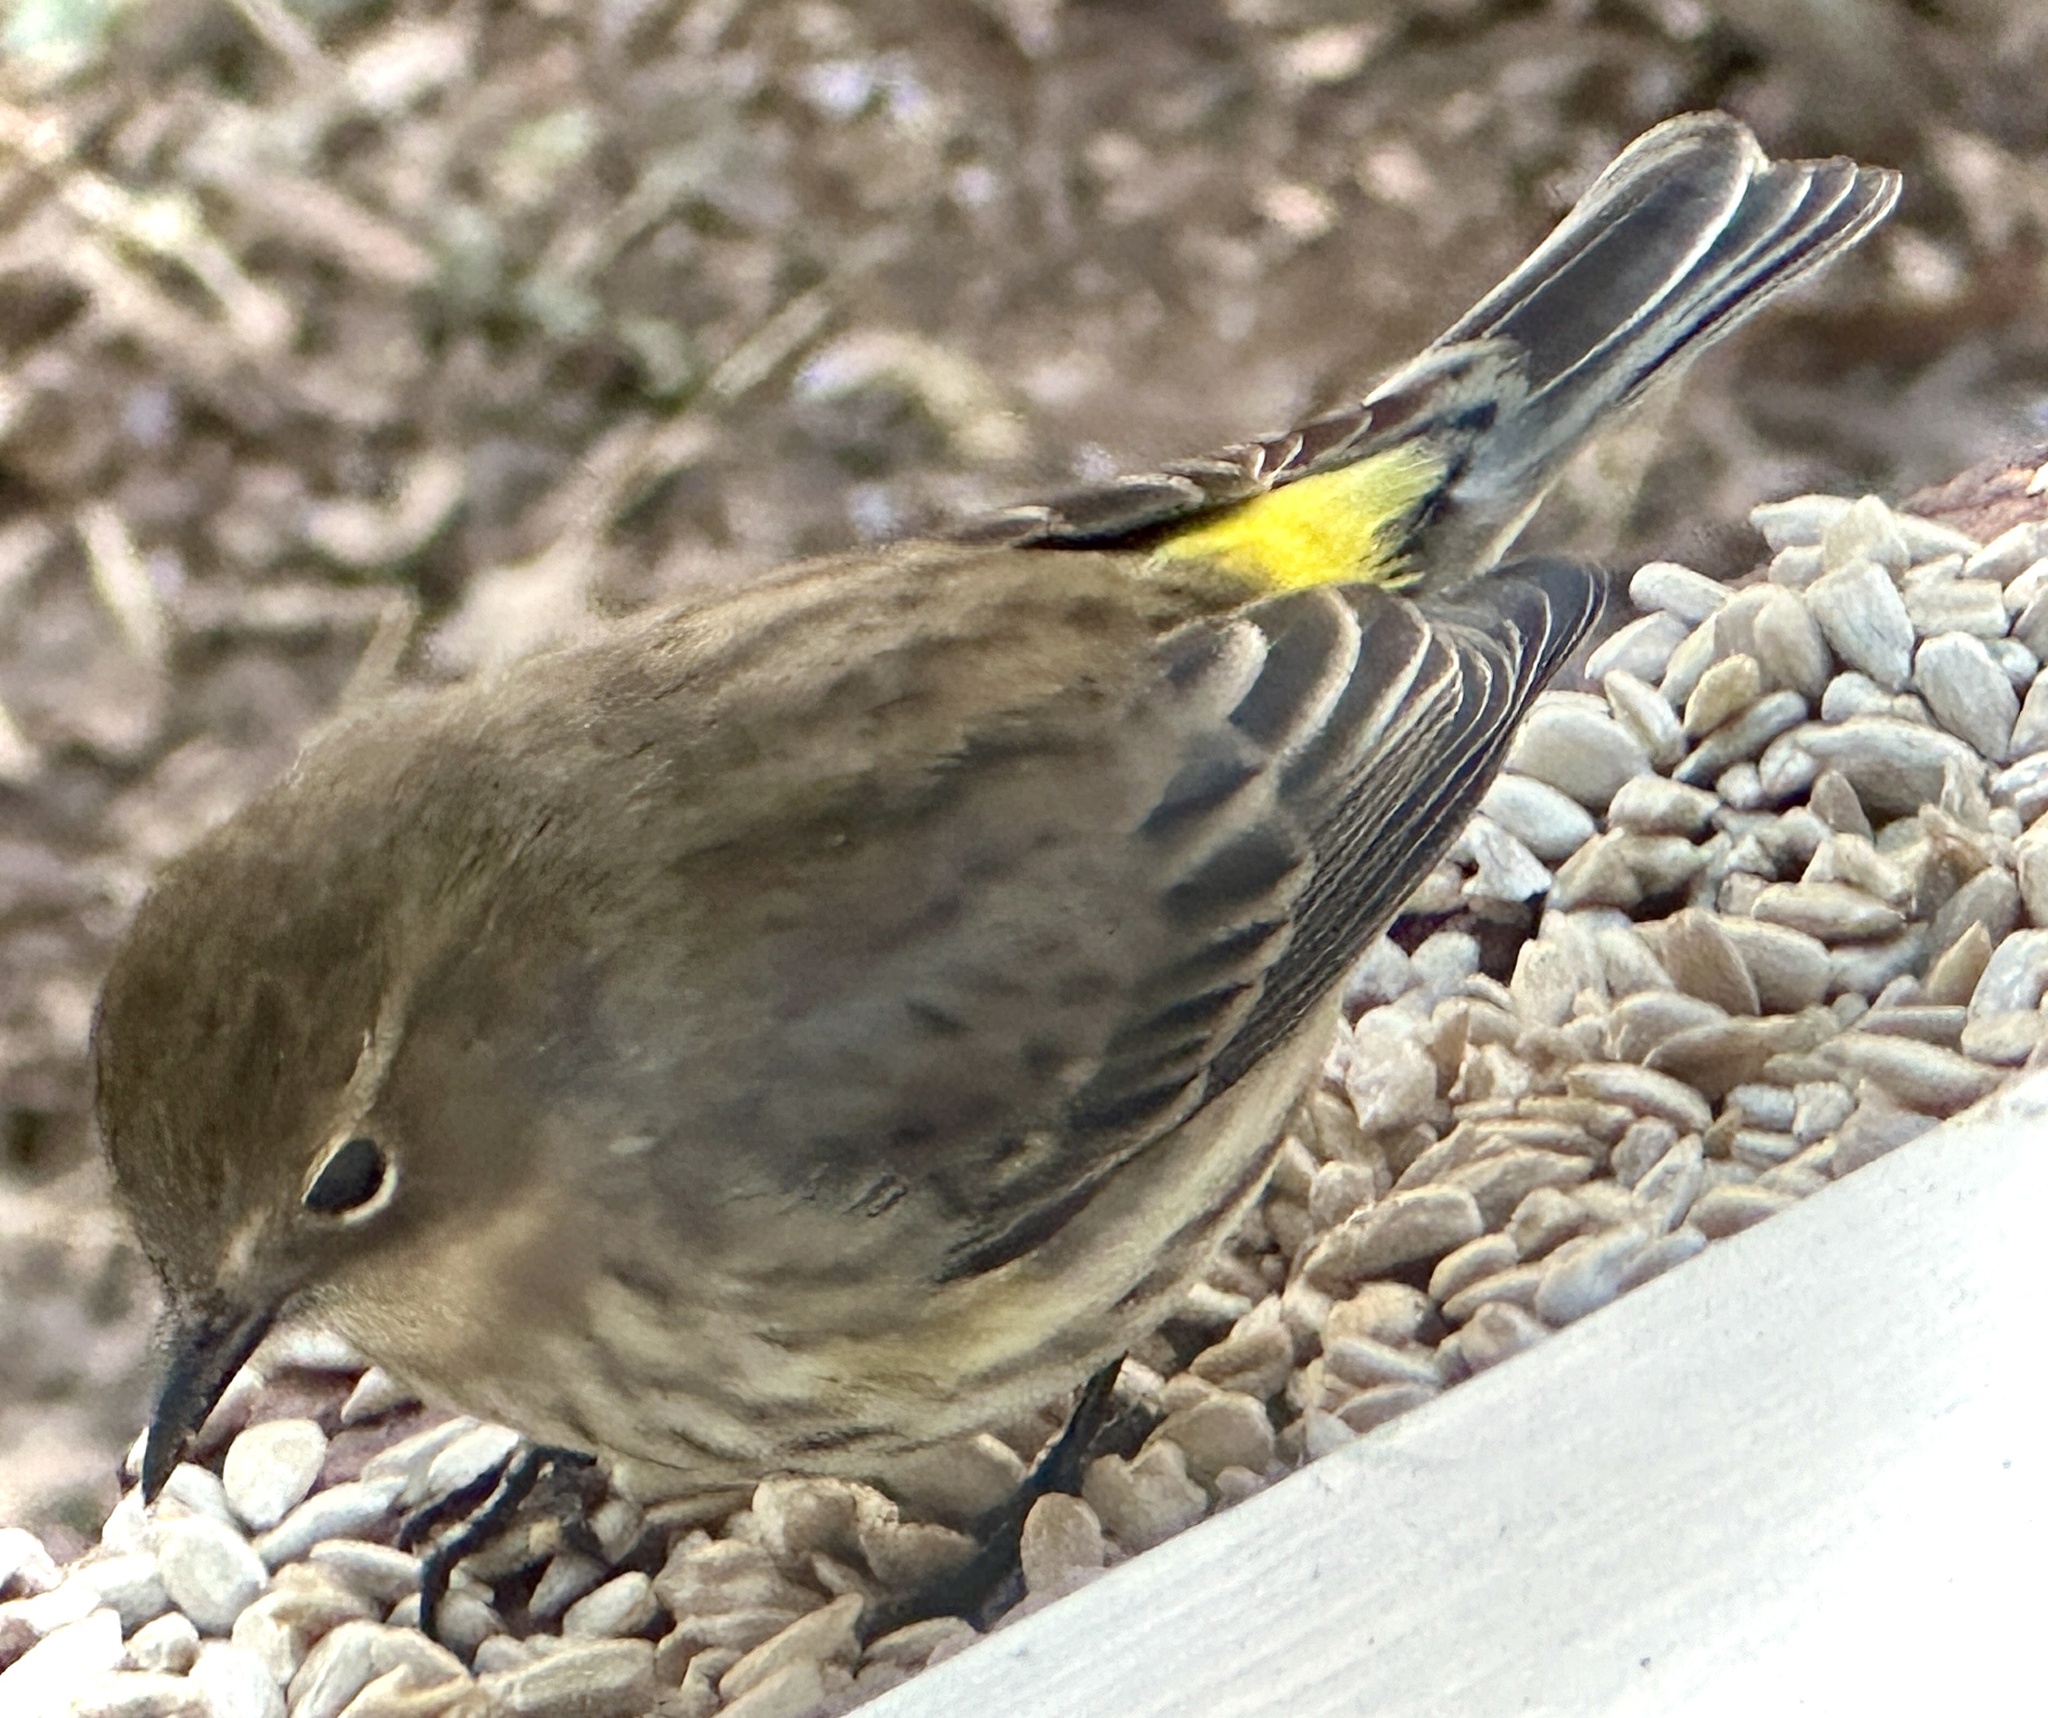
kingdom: Animalia
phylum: Chordata
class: Aves
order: Passeriformes
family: Parulidae
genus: Setophaga
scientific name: Setophaga coronata
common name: Myrtle warbler
